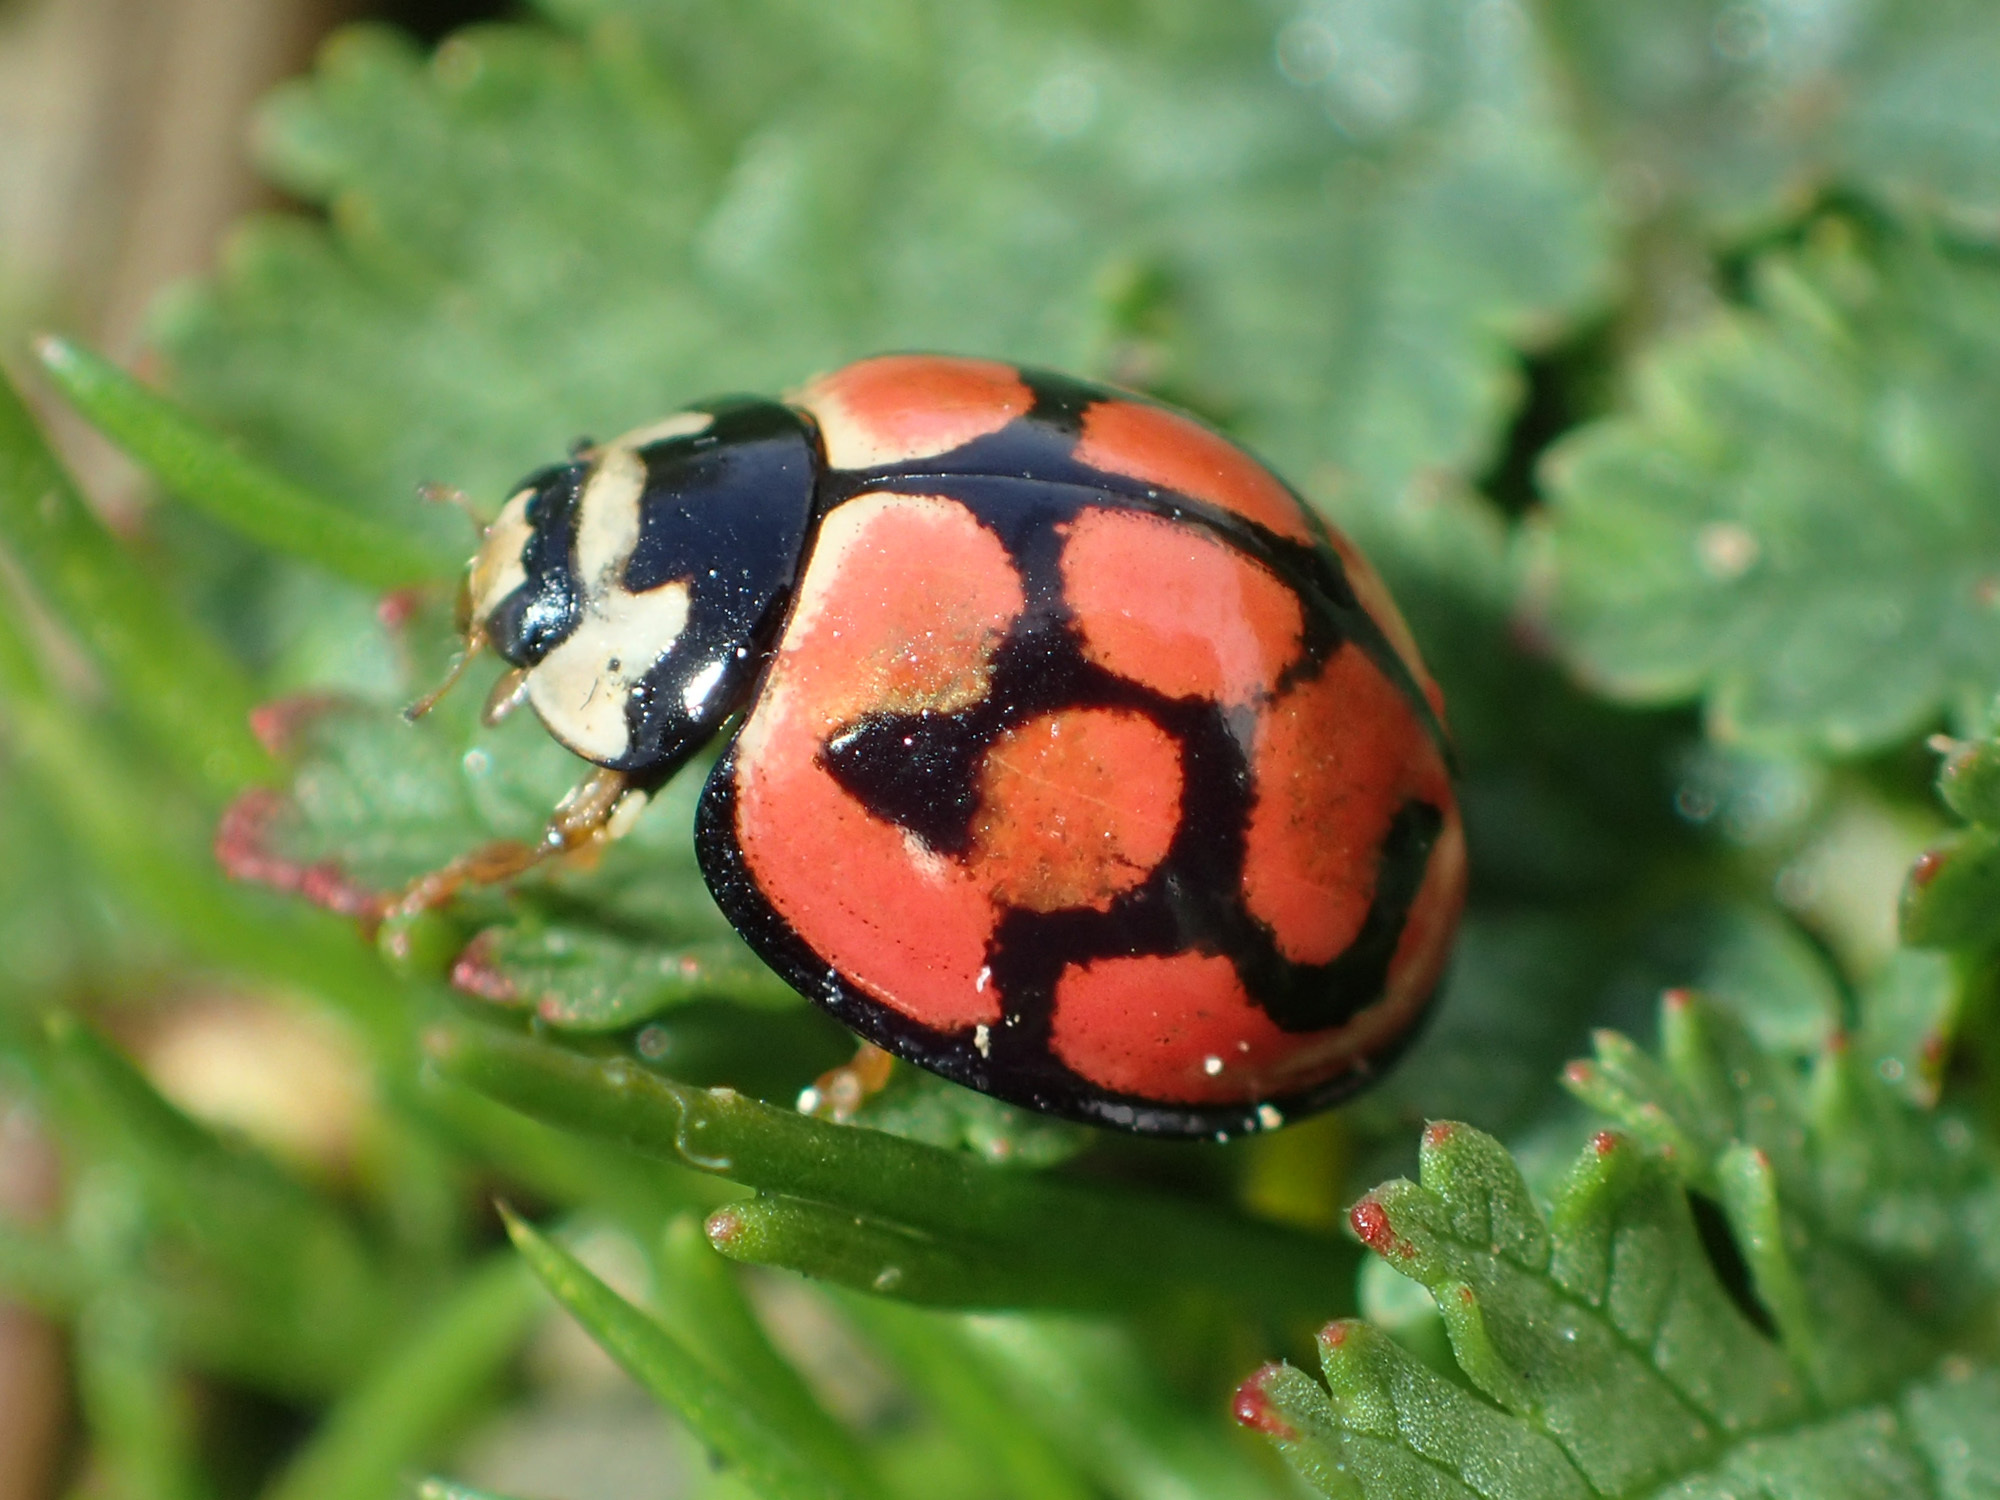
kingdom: Animalia
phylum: Arthropoda
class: Insecta
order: Coleoptera
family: Coccinellidae
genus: Cheilomenes
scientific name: Cheilomenes lunata
